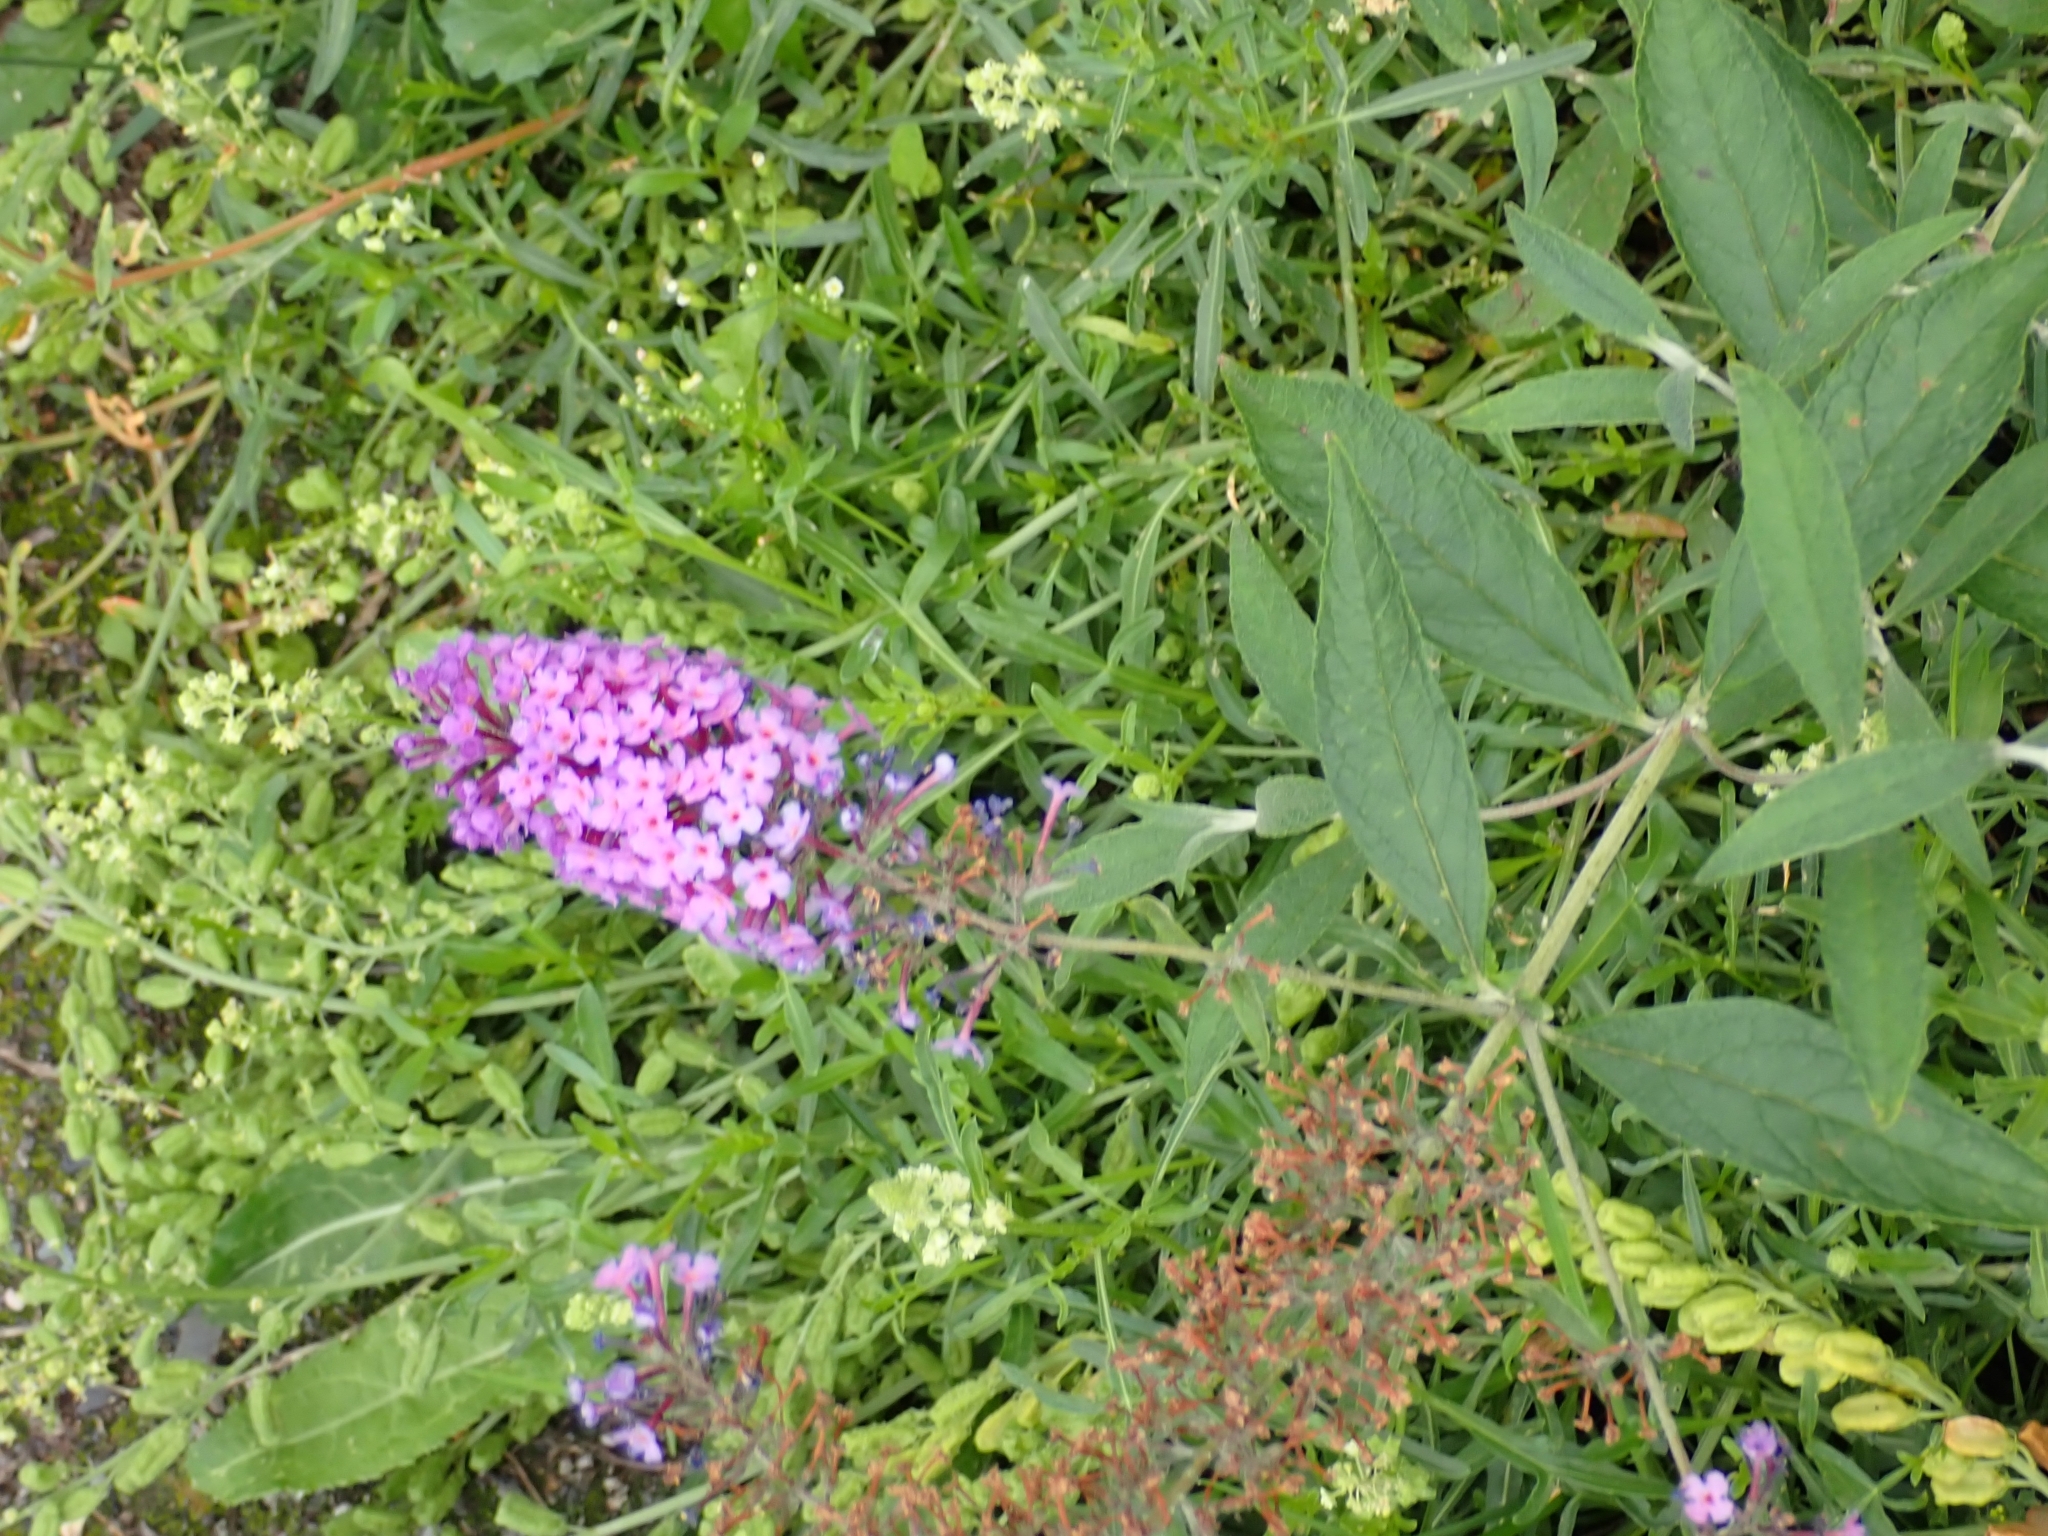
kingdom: Plantae
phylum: Tracheophyta
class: Magnoliopsida
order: Lamiales
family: Scrophulariaceae
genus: Buddleja
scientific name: Buddleja davidii
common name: Butterfly-bush
